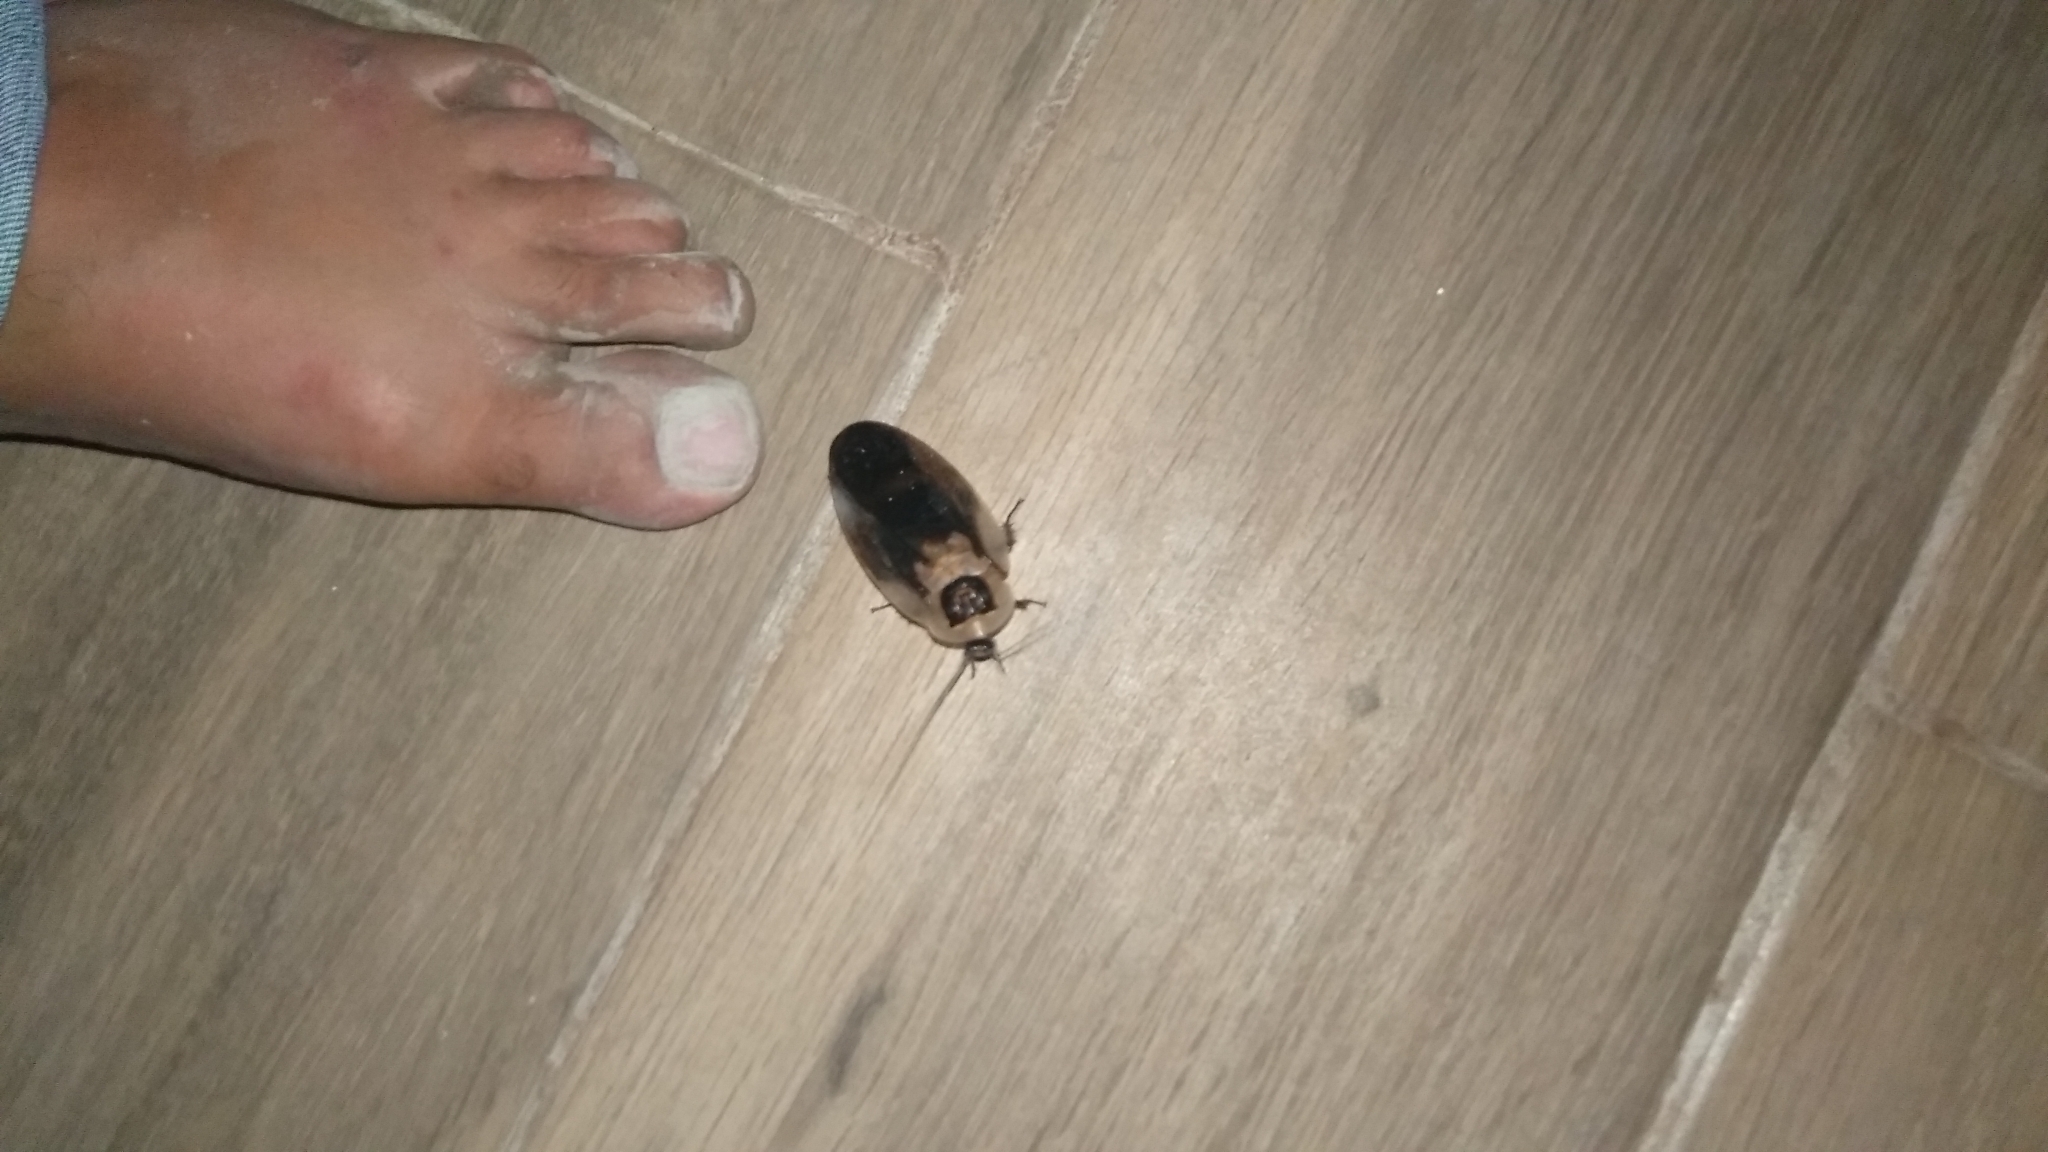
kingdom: Animalia
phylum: Arthropoda
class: Insecta
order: Blattodea
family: Blaberidae
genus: Blaberus
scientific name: Blaberus craniifer
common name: Death's head cockroach
